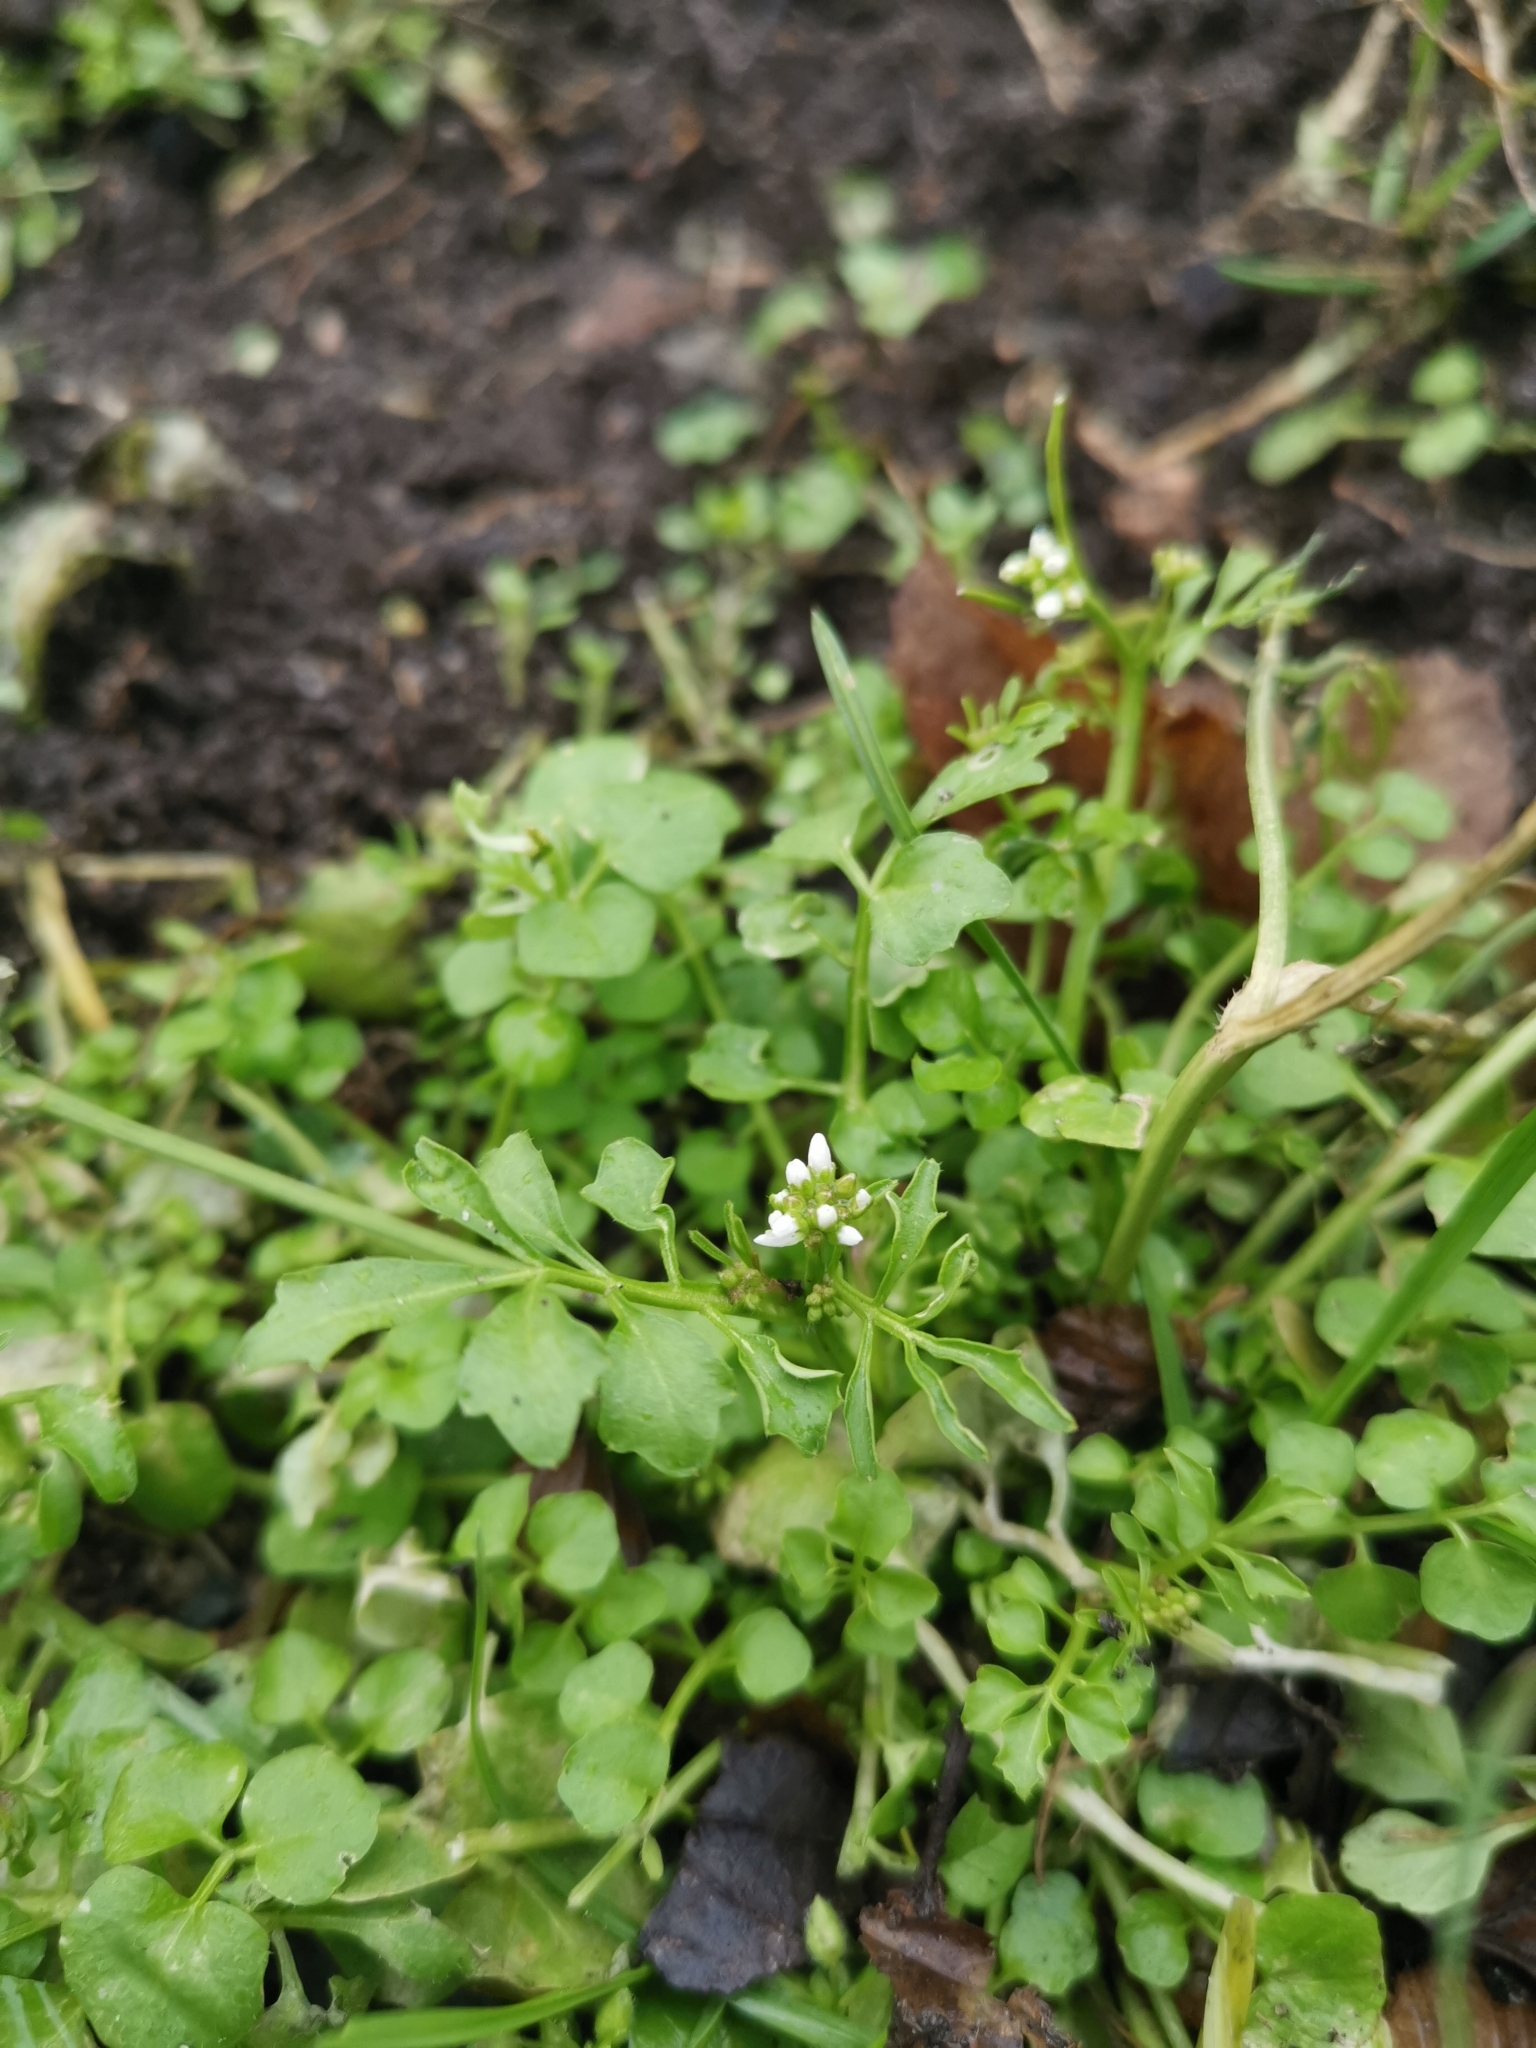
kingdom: Plantae
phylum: Tracheophyta
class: Magnoliopsida
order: Brassicales
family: Brassicaceae
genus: Cardamine
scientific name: Cardamine hirsuta
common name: Hairy bittercress
